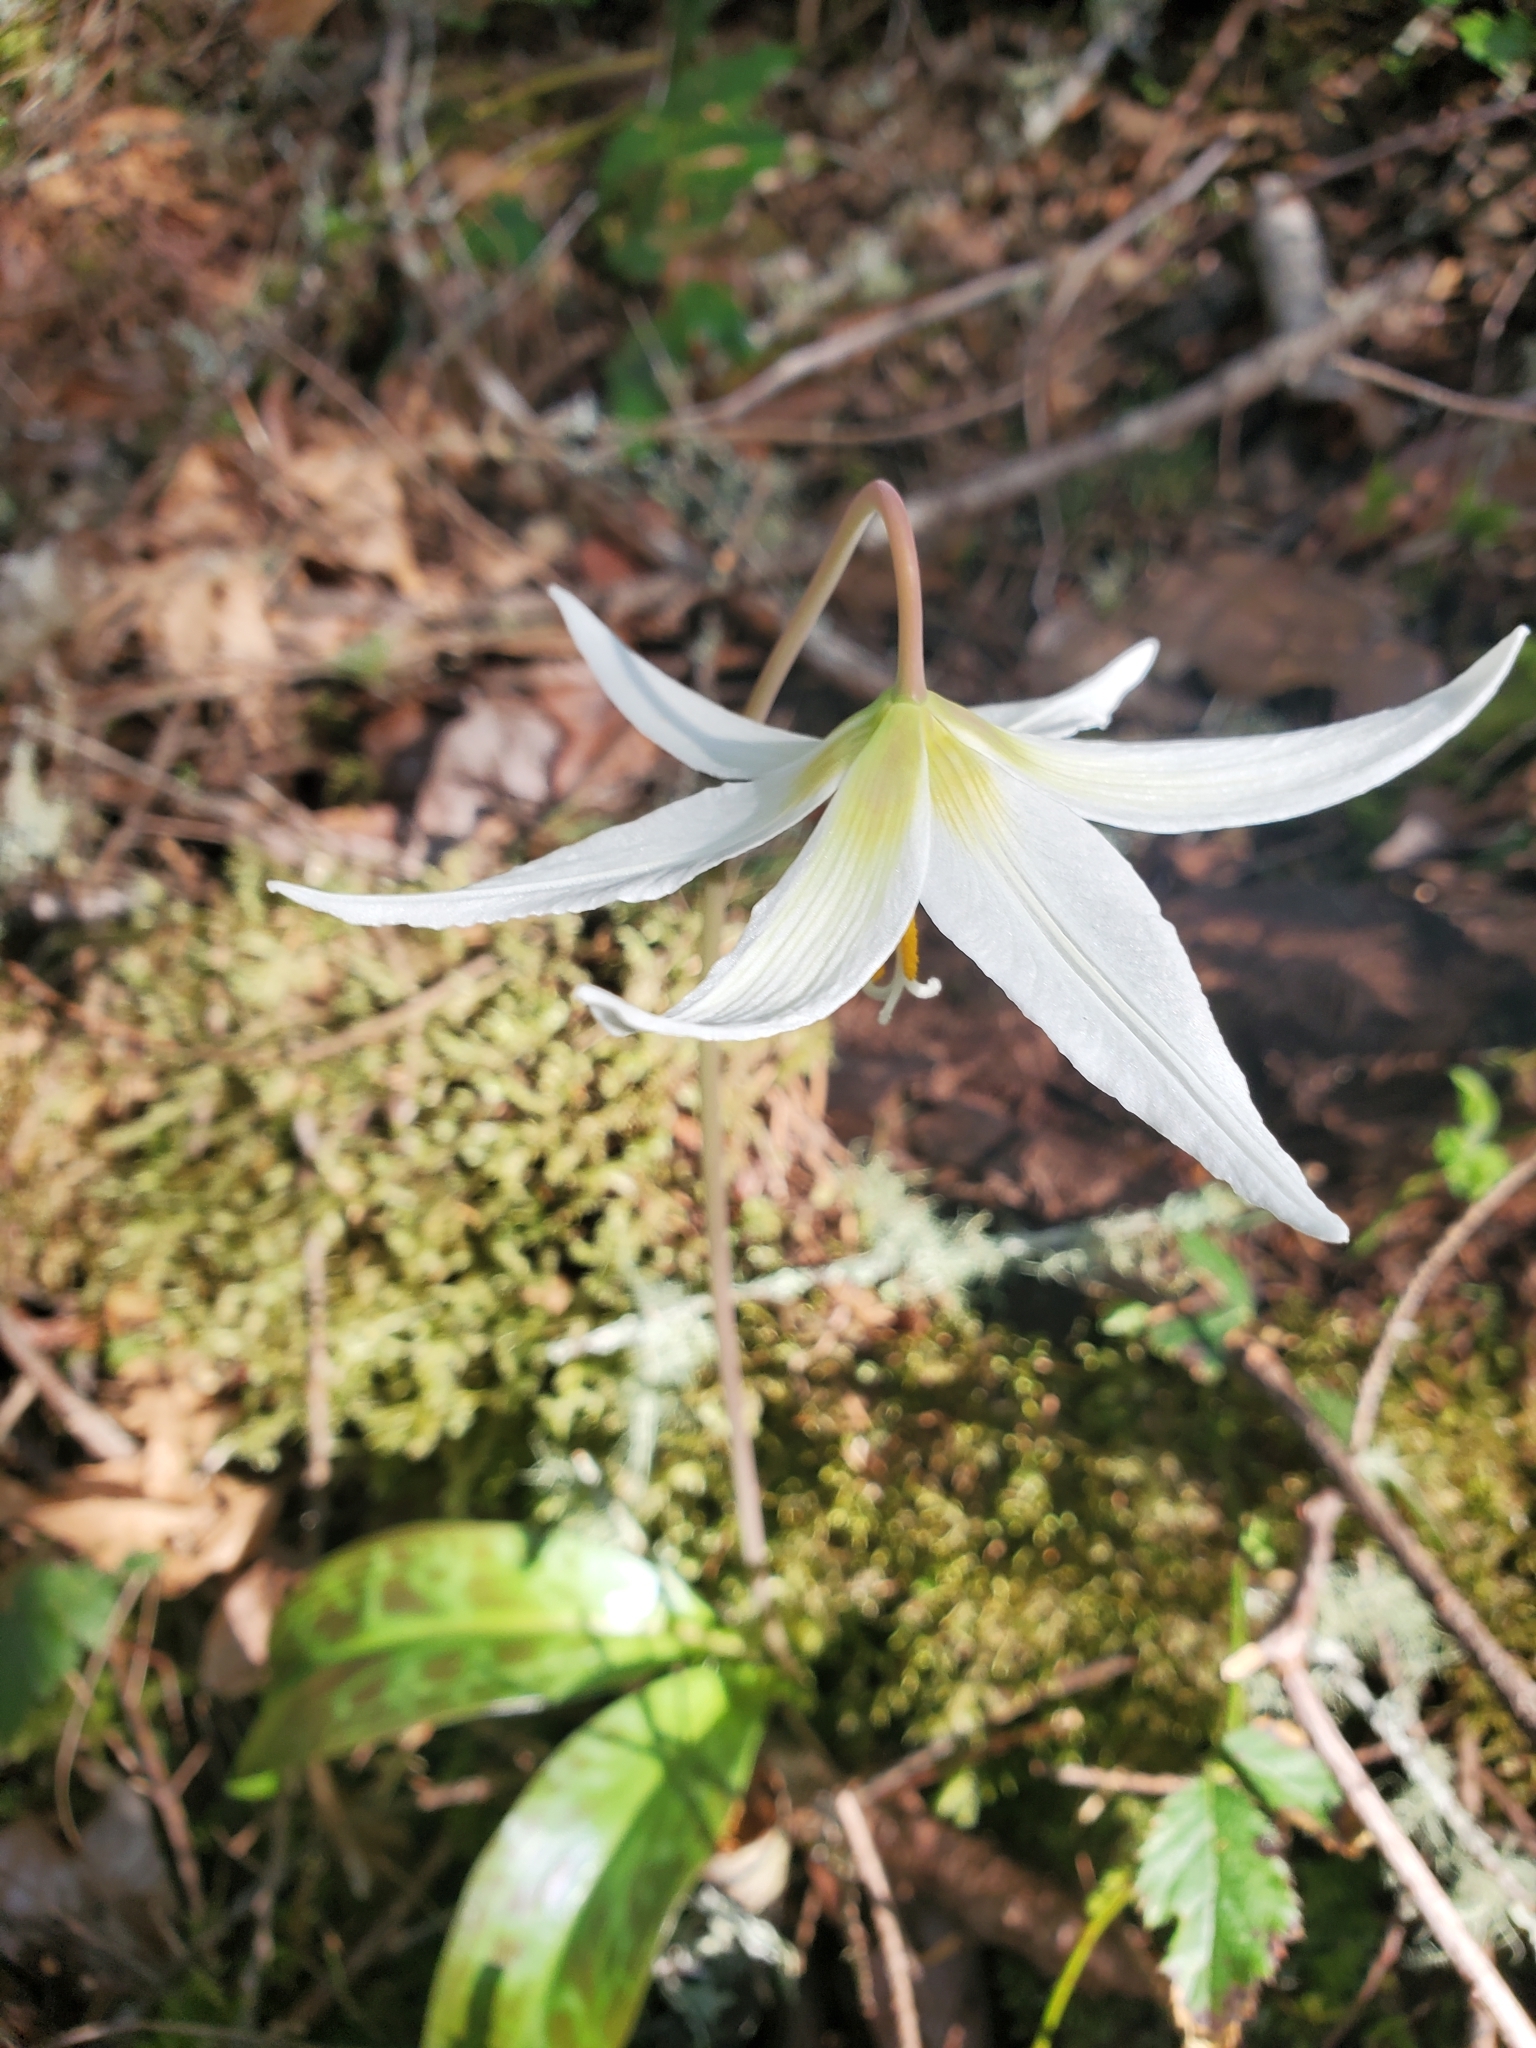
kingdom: Plantae
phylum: Tracheophyta
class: Liliopsida
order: Liliales
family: Liliaceae
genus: Erythronium
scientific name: Erythronium oregonum
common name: Giant adder's-tongue
